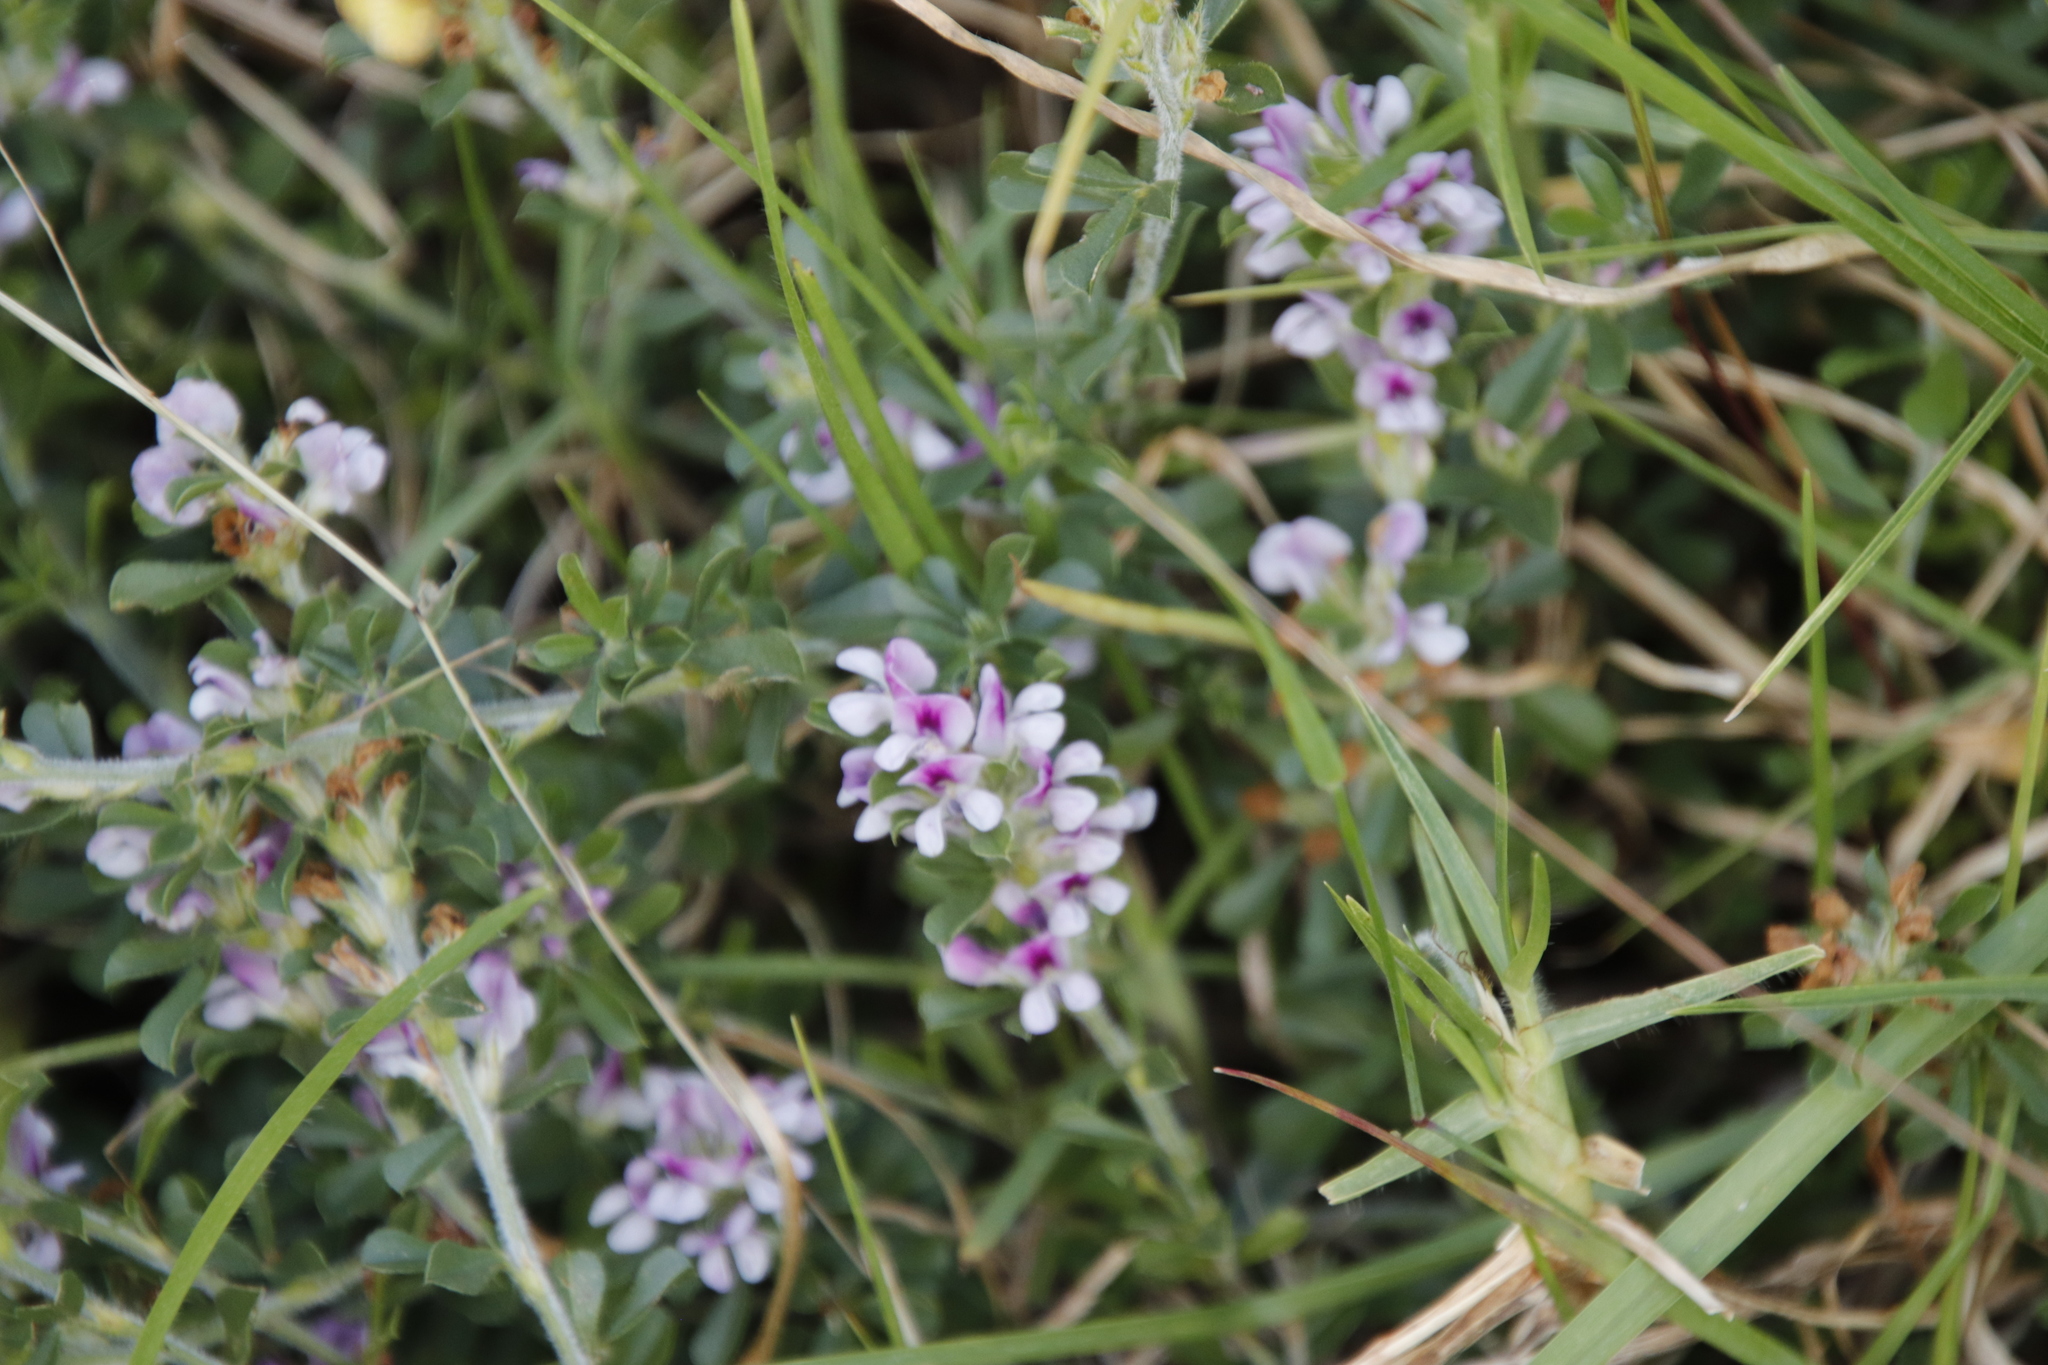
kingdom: Plantae
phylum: Tracheophyta
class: Magnoliopsida
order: Fabales
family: Fabaceae
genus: Psoralea
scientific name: Psoralea
